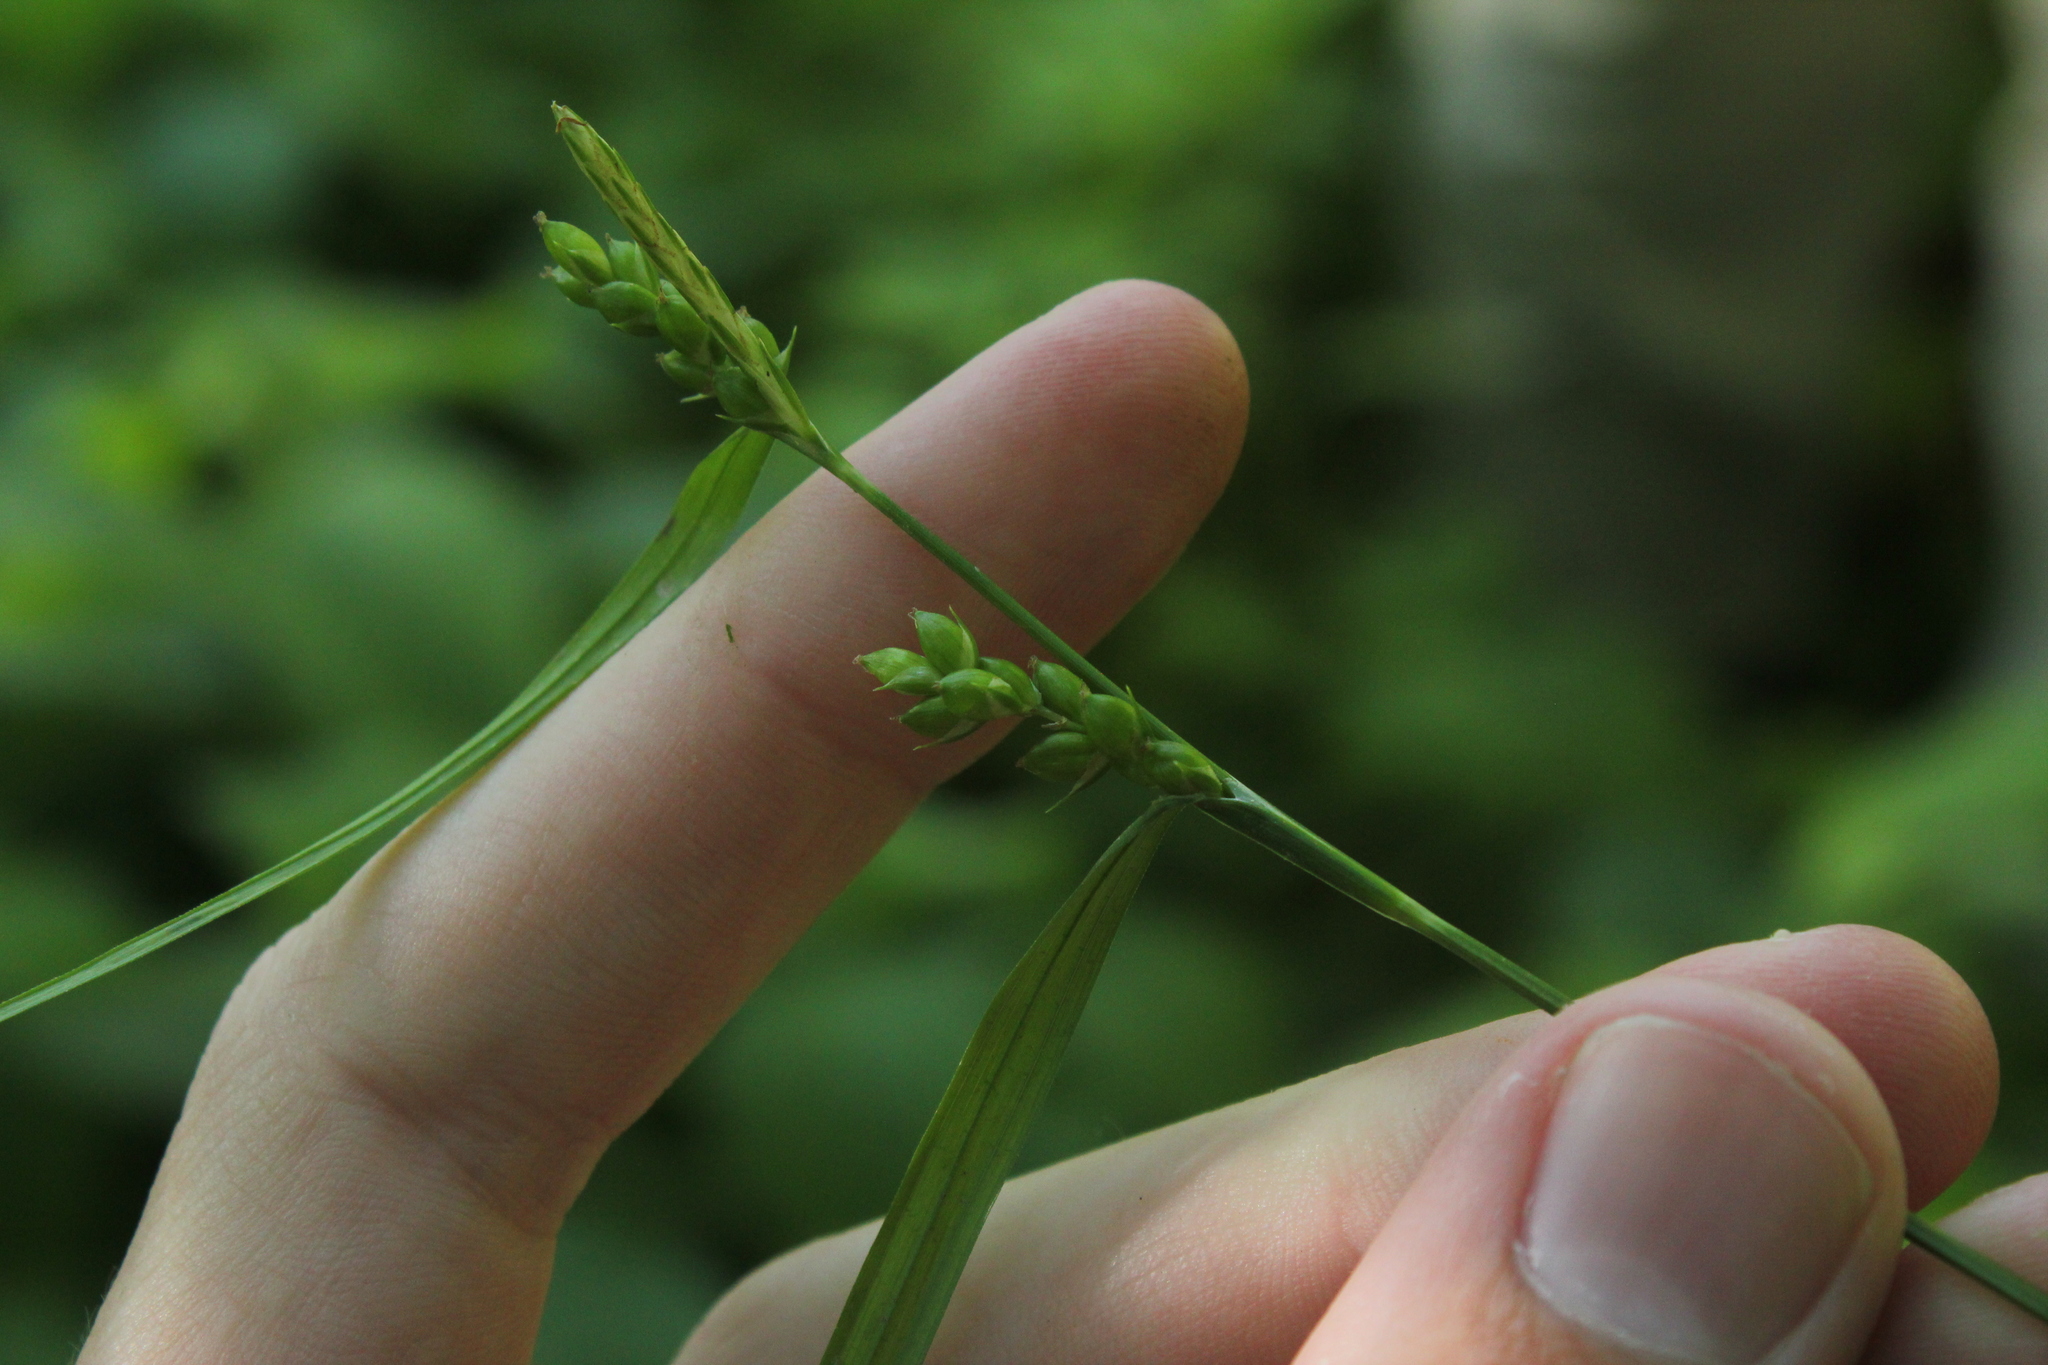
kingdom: Plantae
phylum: Tracheophyta
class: Liliopsida
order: Poales
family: Cyperaceae
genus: Carex
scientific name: Carex grisea
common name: Eastern narrow-leaved sedge
